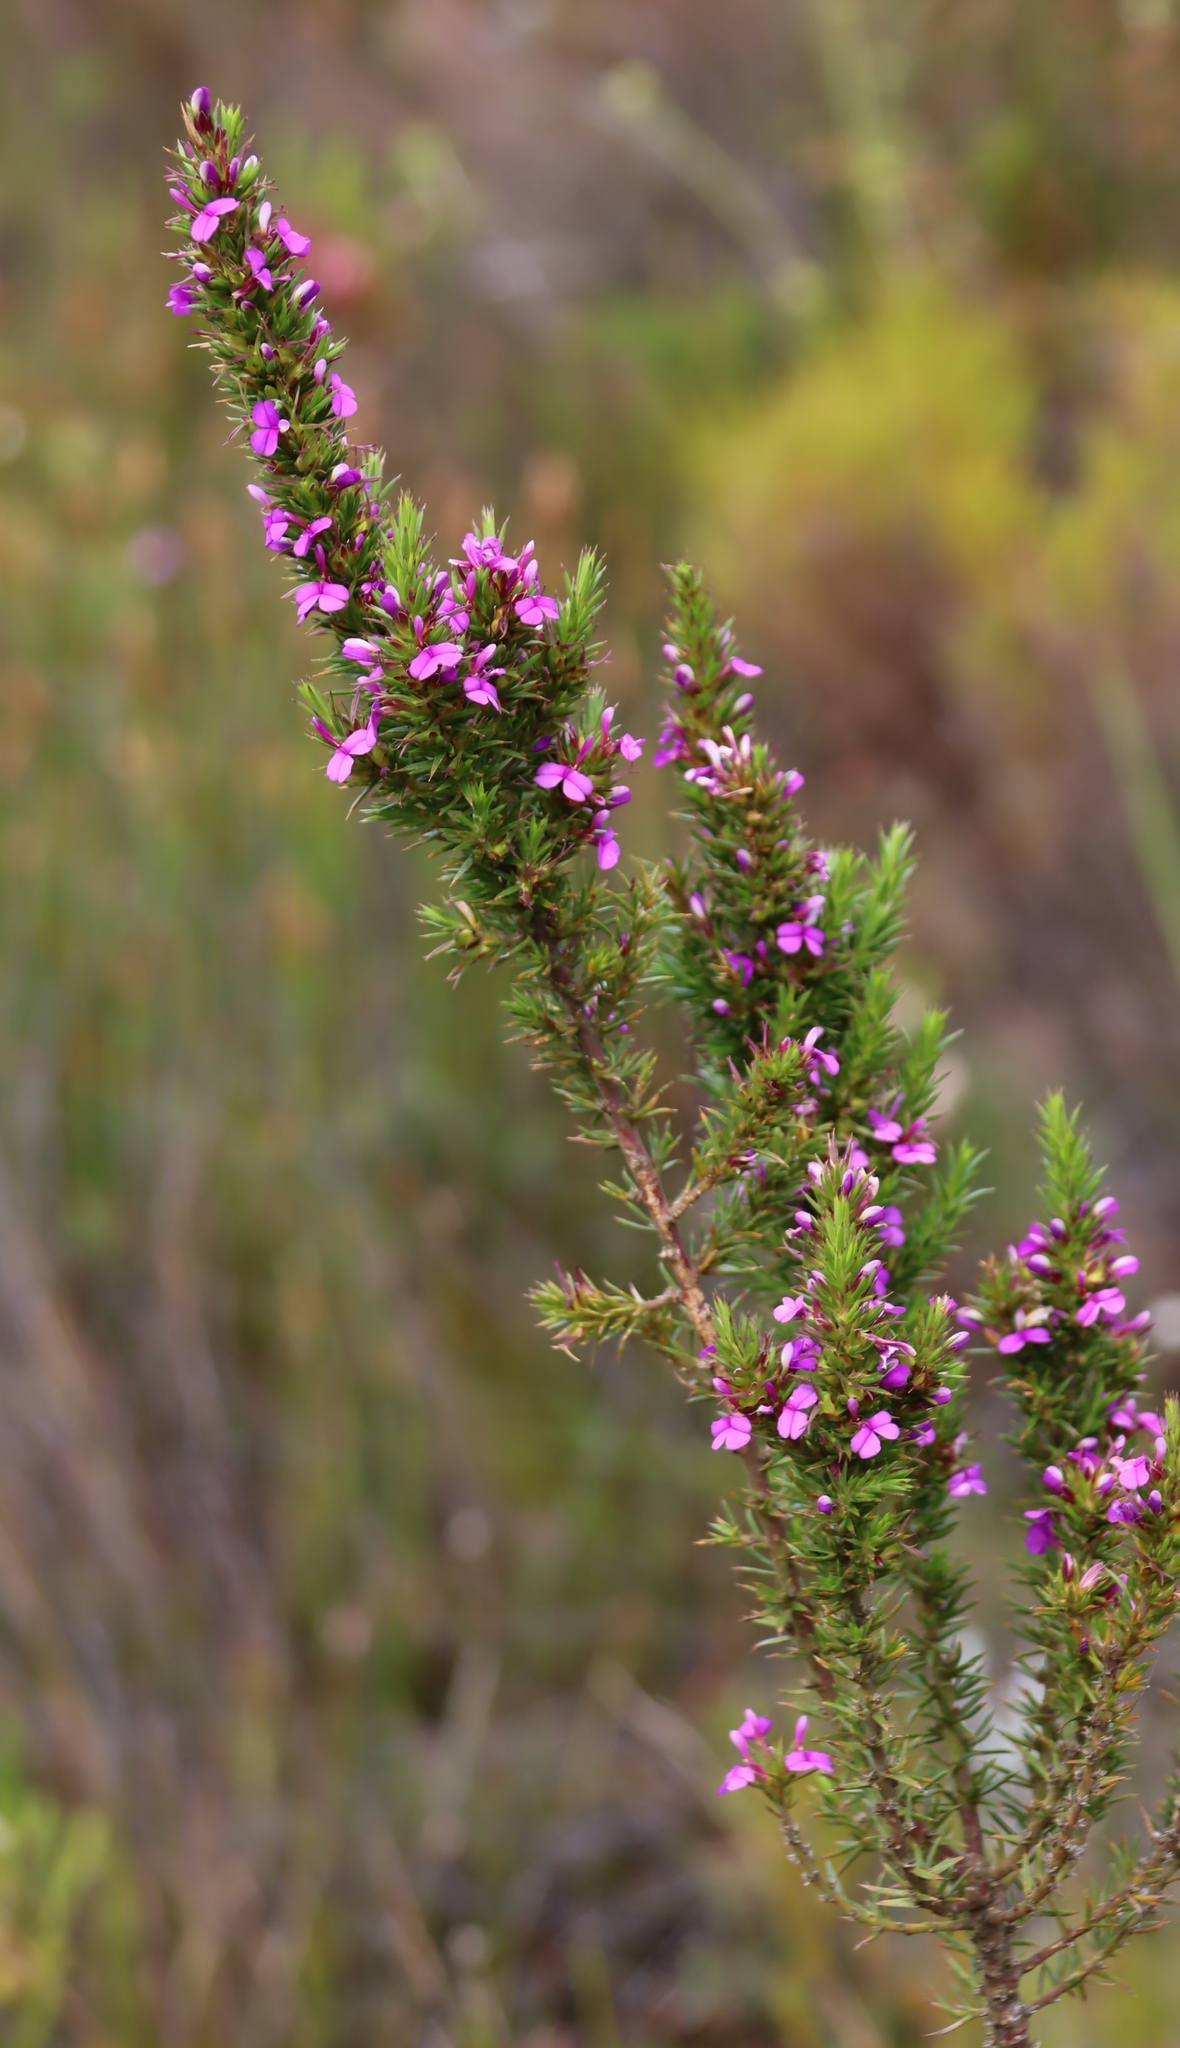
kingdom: Plantae
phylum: Tracheophyta
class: Magnoliopsida
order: Fabales
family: Polygalaceae
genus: Muraltia
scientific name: Muraltia heisteria
